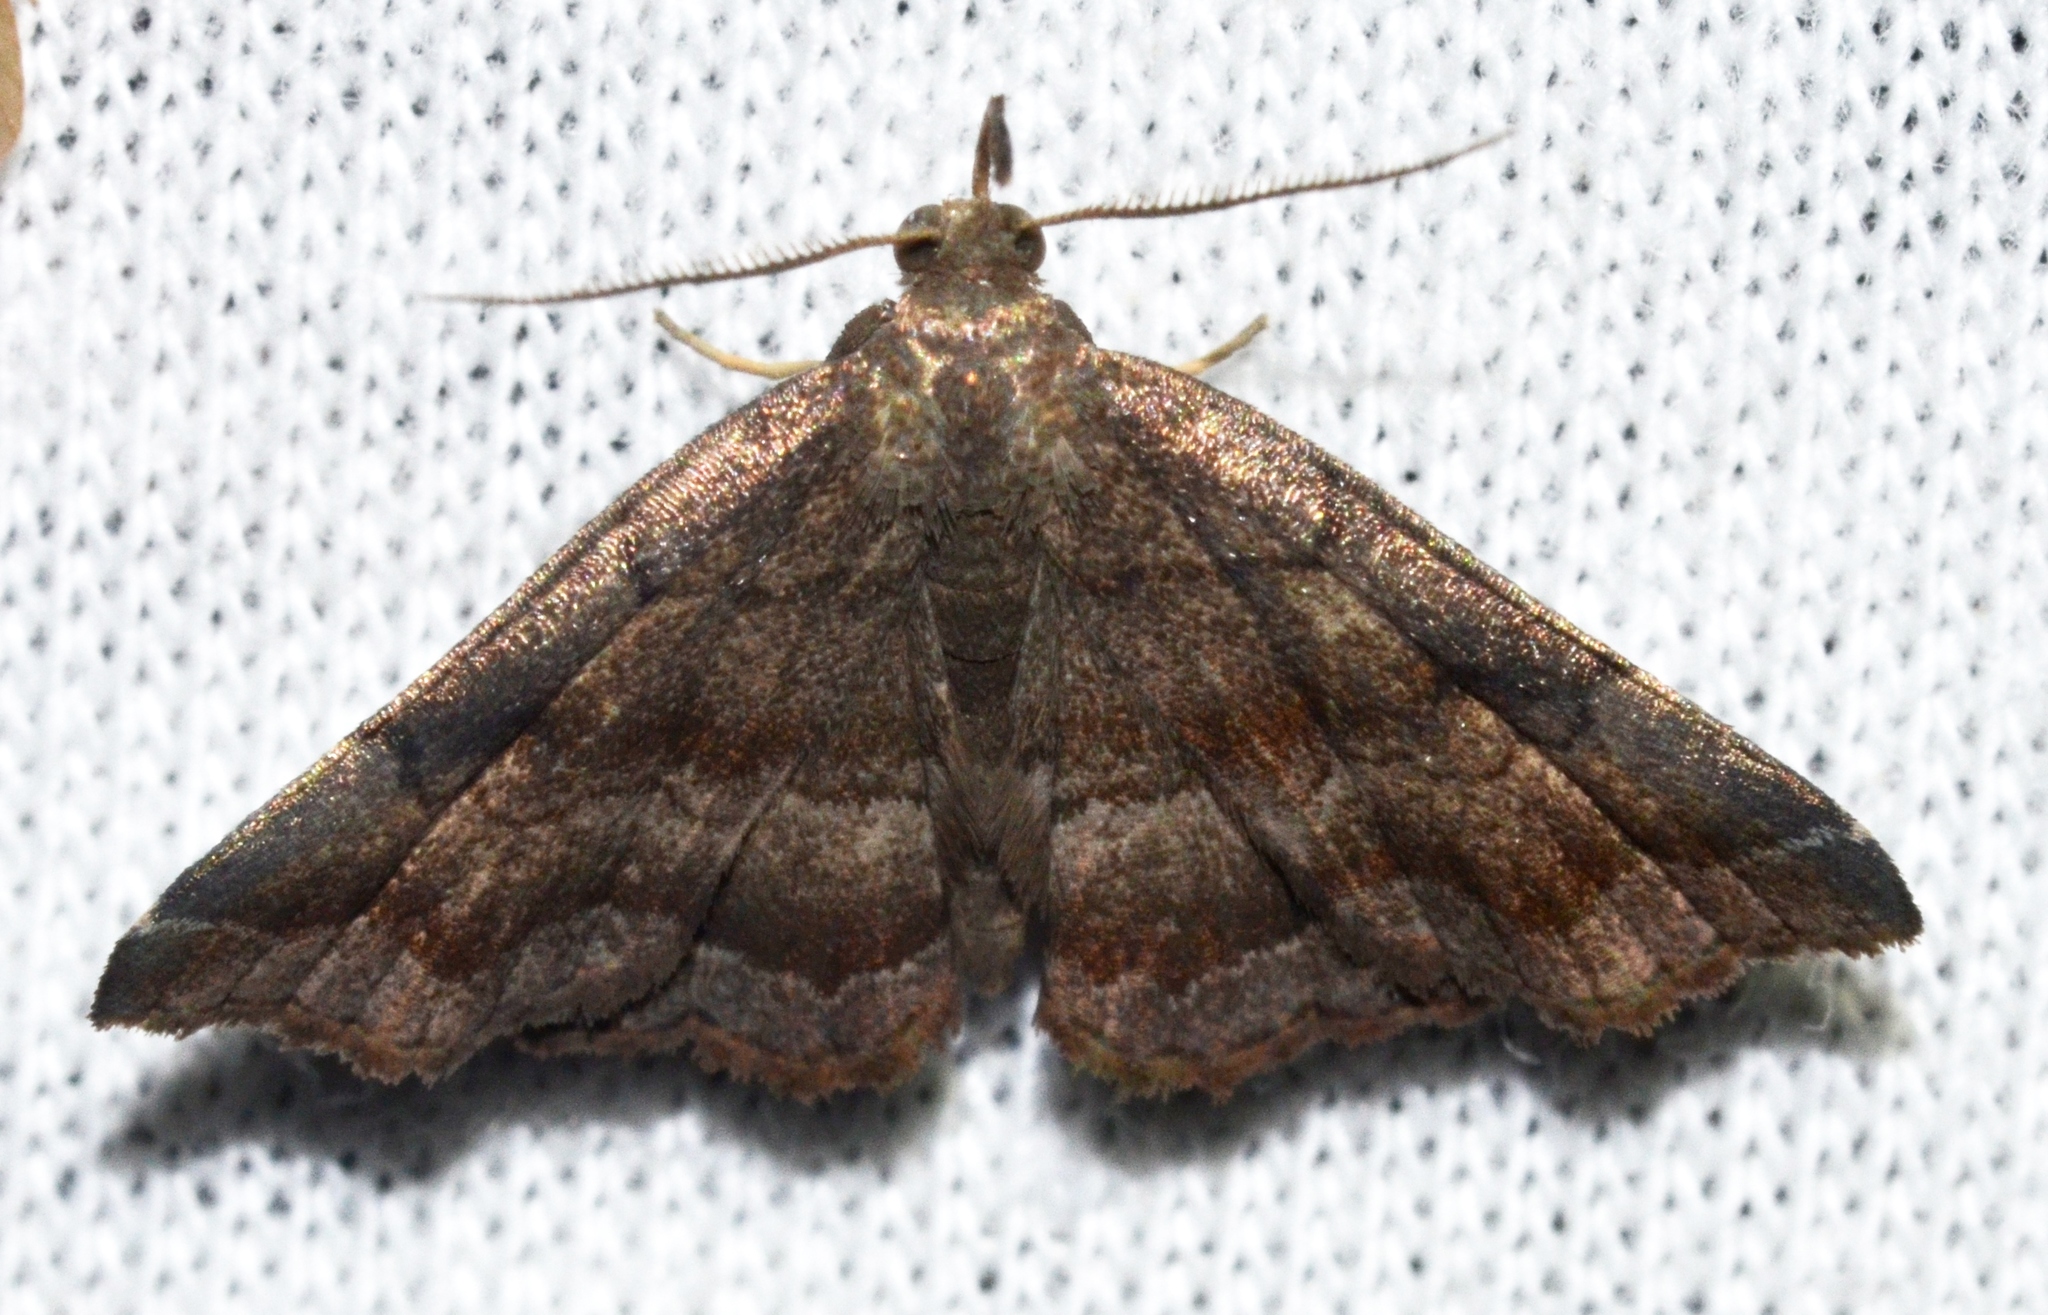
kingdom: Animalia
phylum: Arthropoda
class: Insecta
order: Lepidoptera
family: Erebidae
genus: Phalaenostola
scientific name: Phalaenostola larentioides
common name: Black-banded owlet
